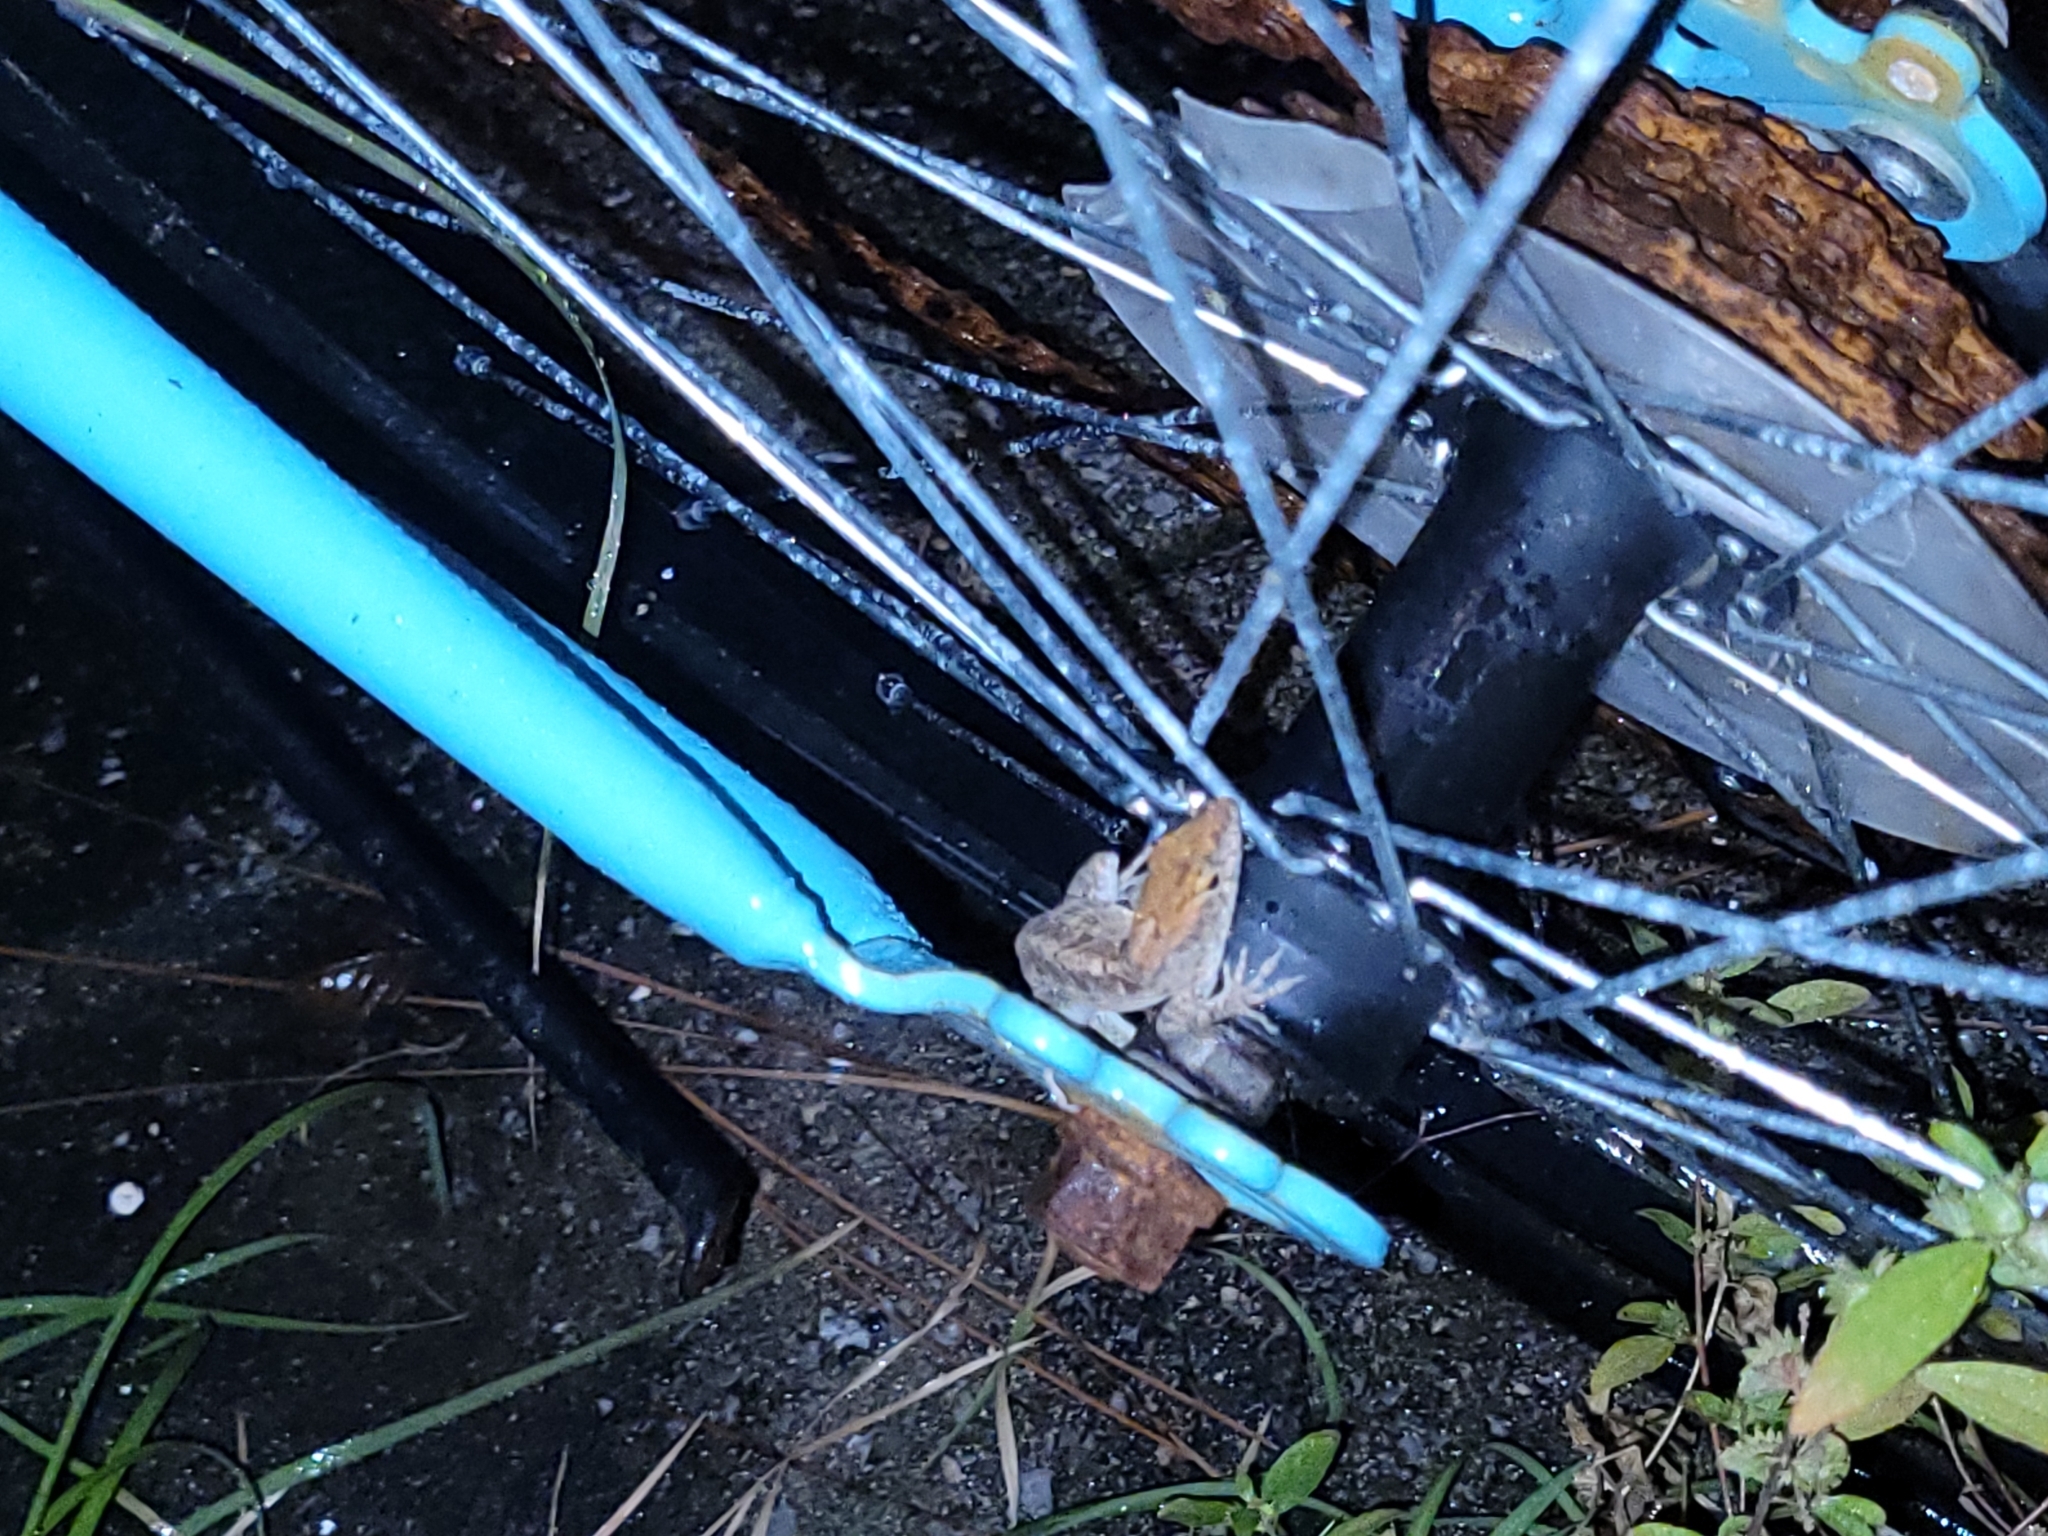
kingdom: Animalia
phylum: Chordata
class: Squamata
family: Dactyloidae
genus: Anolis
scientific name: Anolis sagrei
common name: Brown anole
